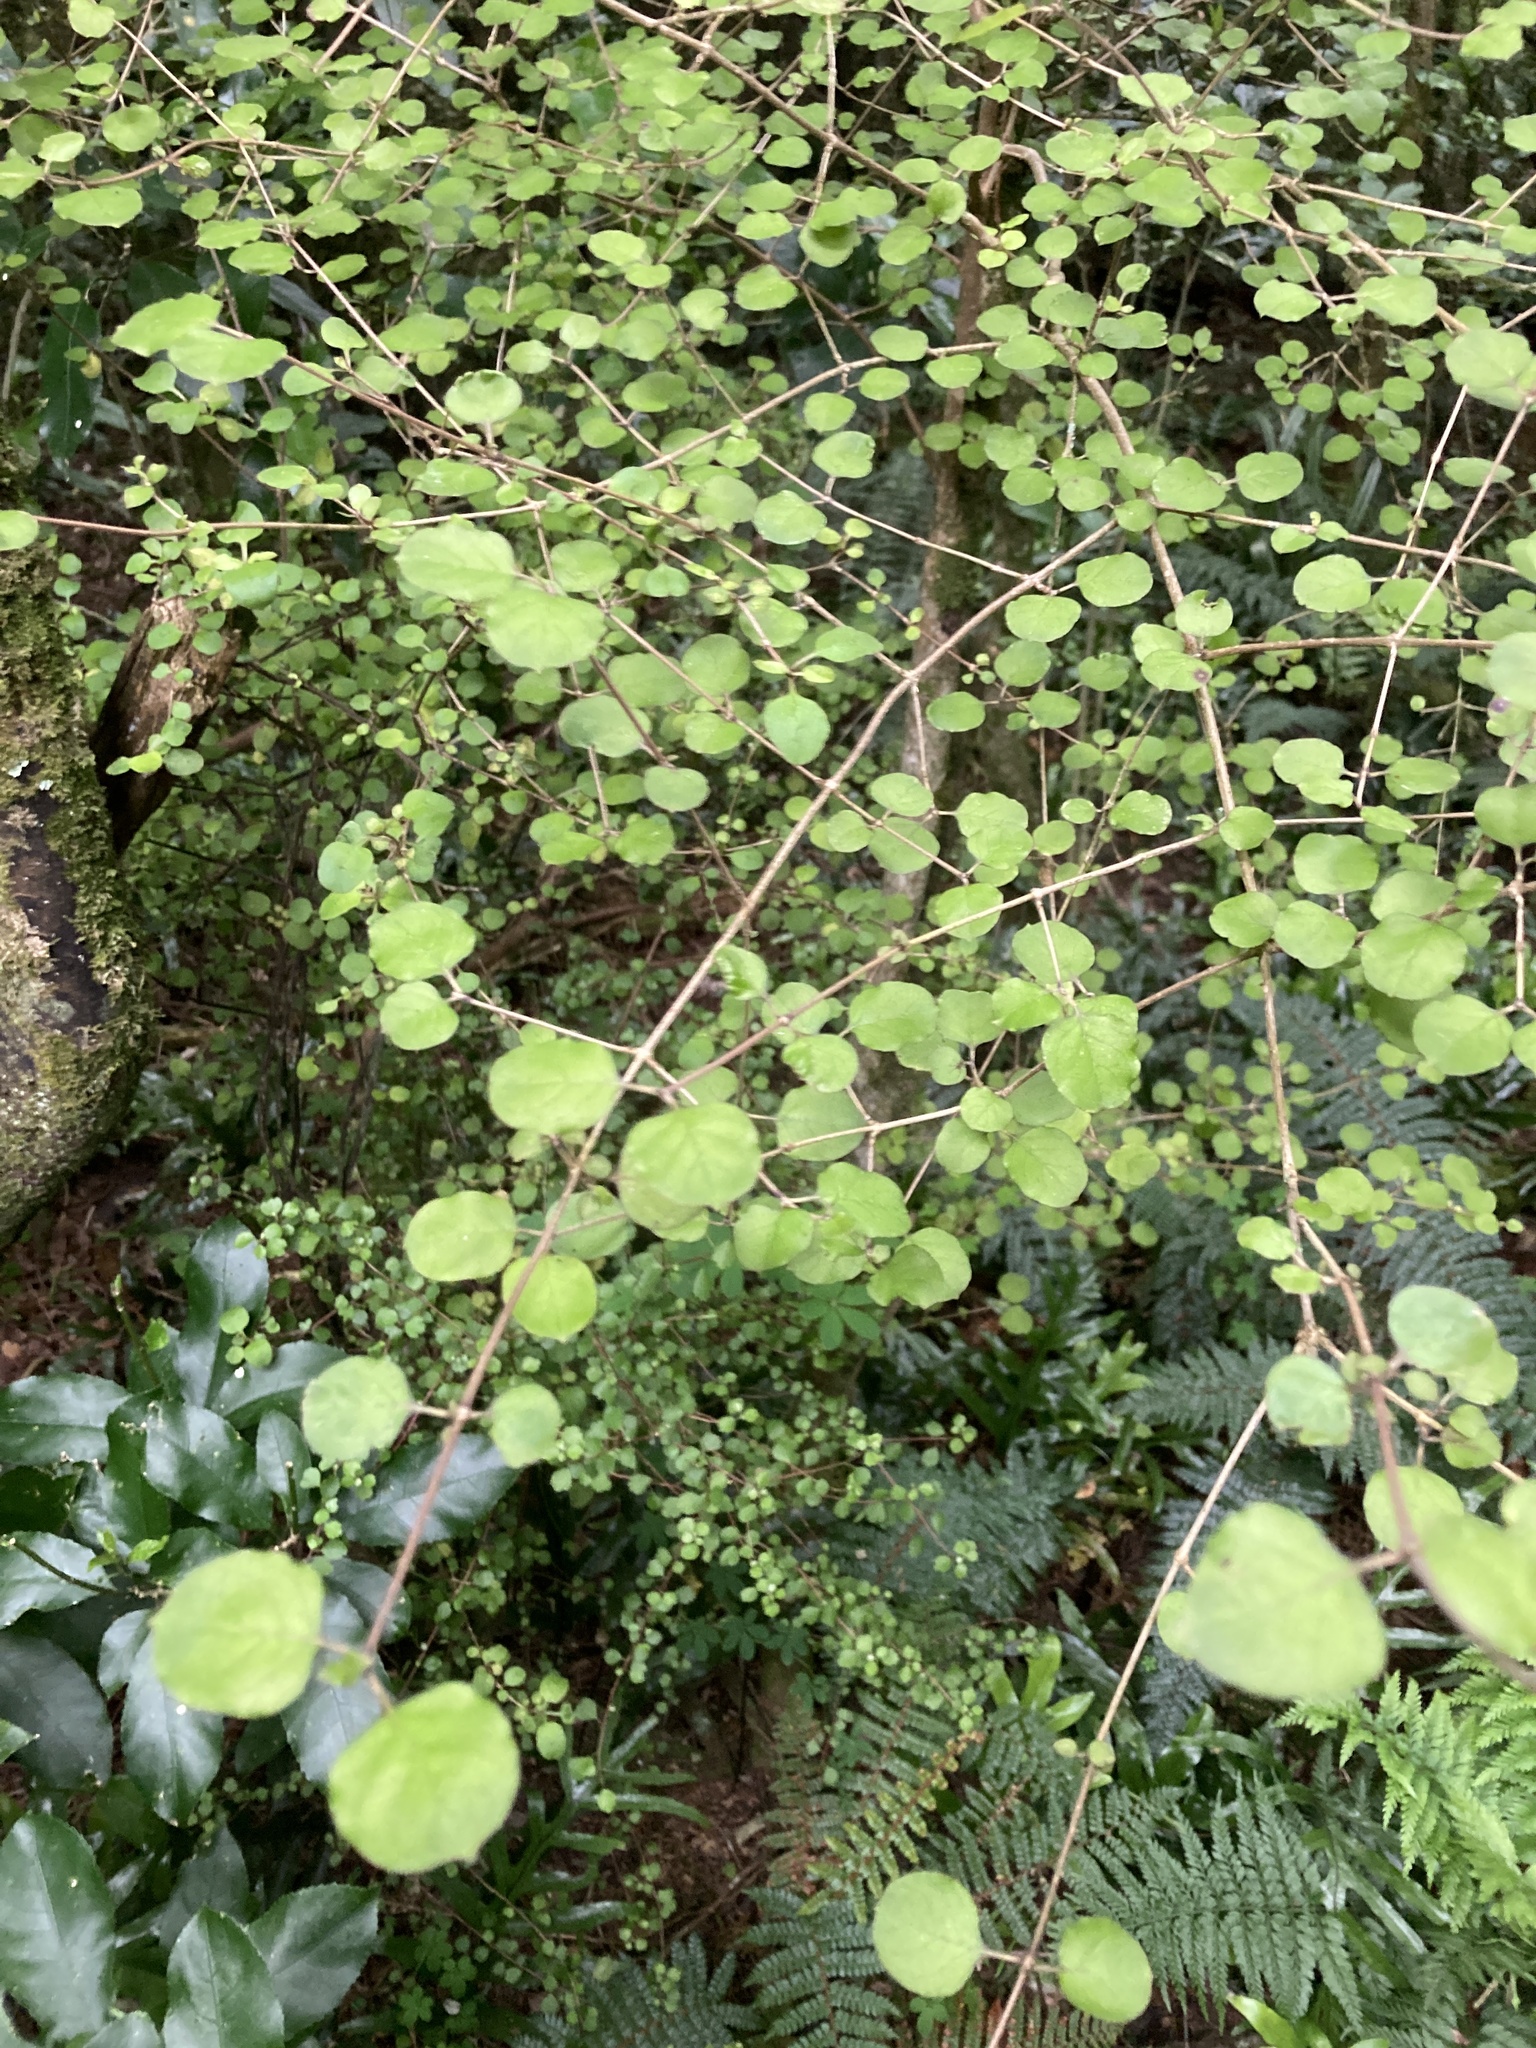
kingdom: Plantae
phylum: Tracheophyta
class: Magnoliopsida
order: Gentianales
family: Rubiaceae
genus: Coprosma
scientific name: Coprosma rotundifolia
